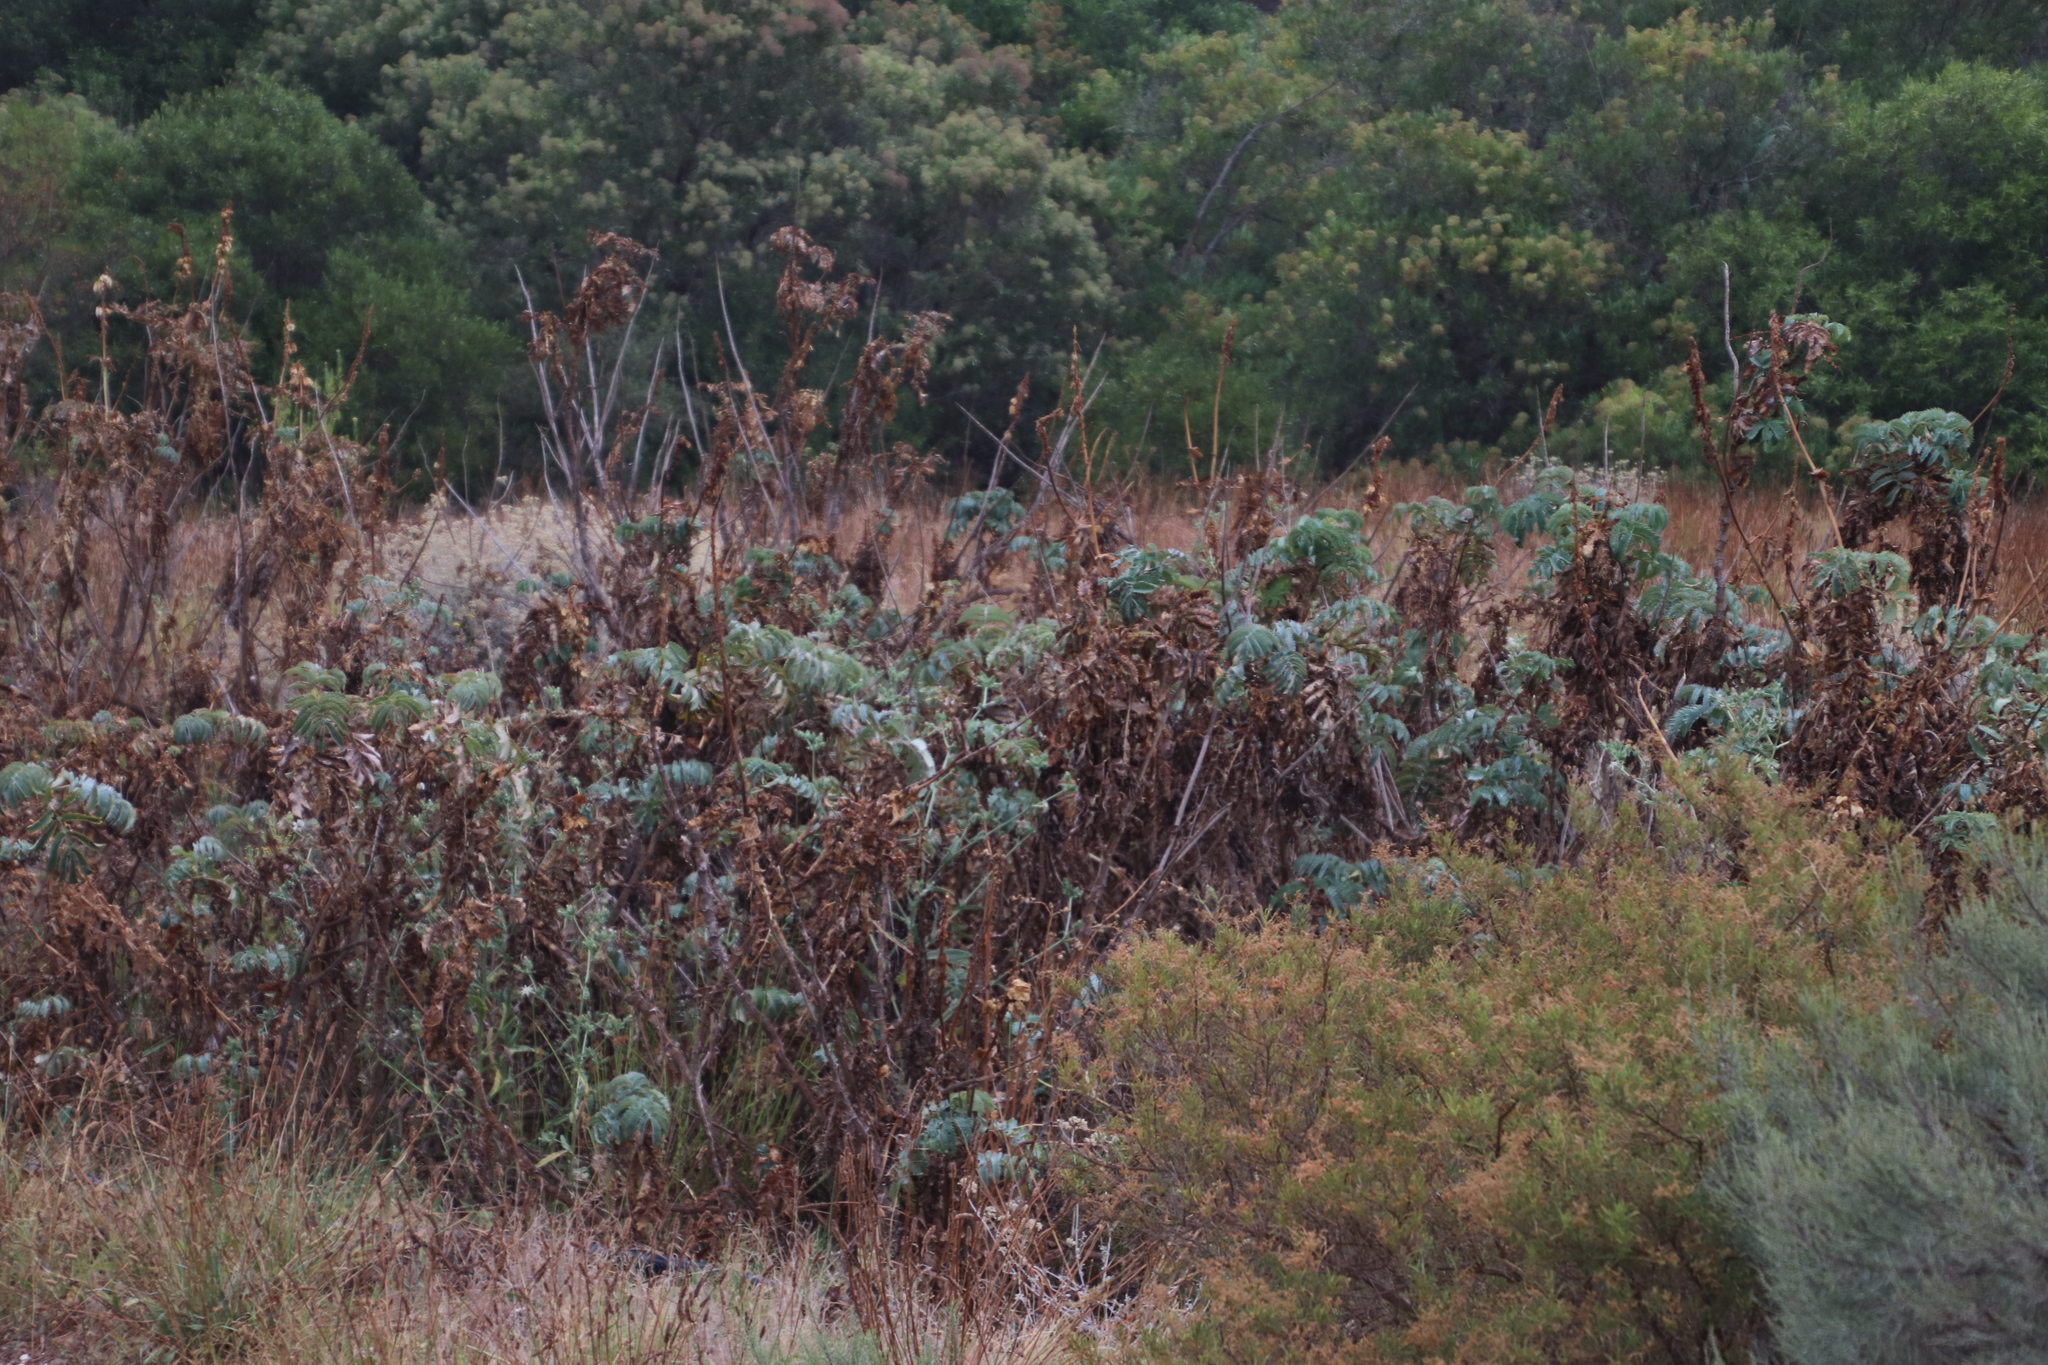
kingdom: Plantae
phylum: Tracheophyta
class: Magnoliopsida
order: Geraniales
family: Melianthaceae
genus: Melianthus
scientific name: Melianthus major
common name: Honey-flower
